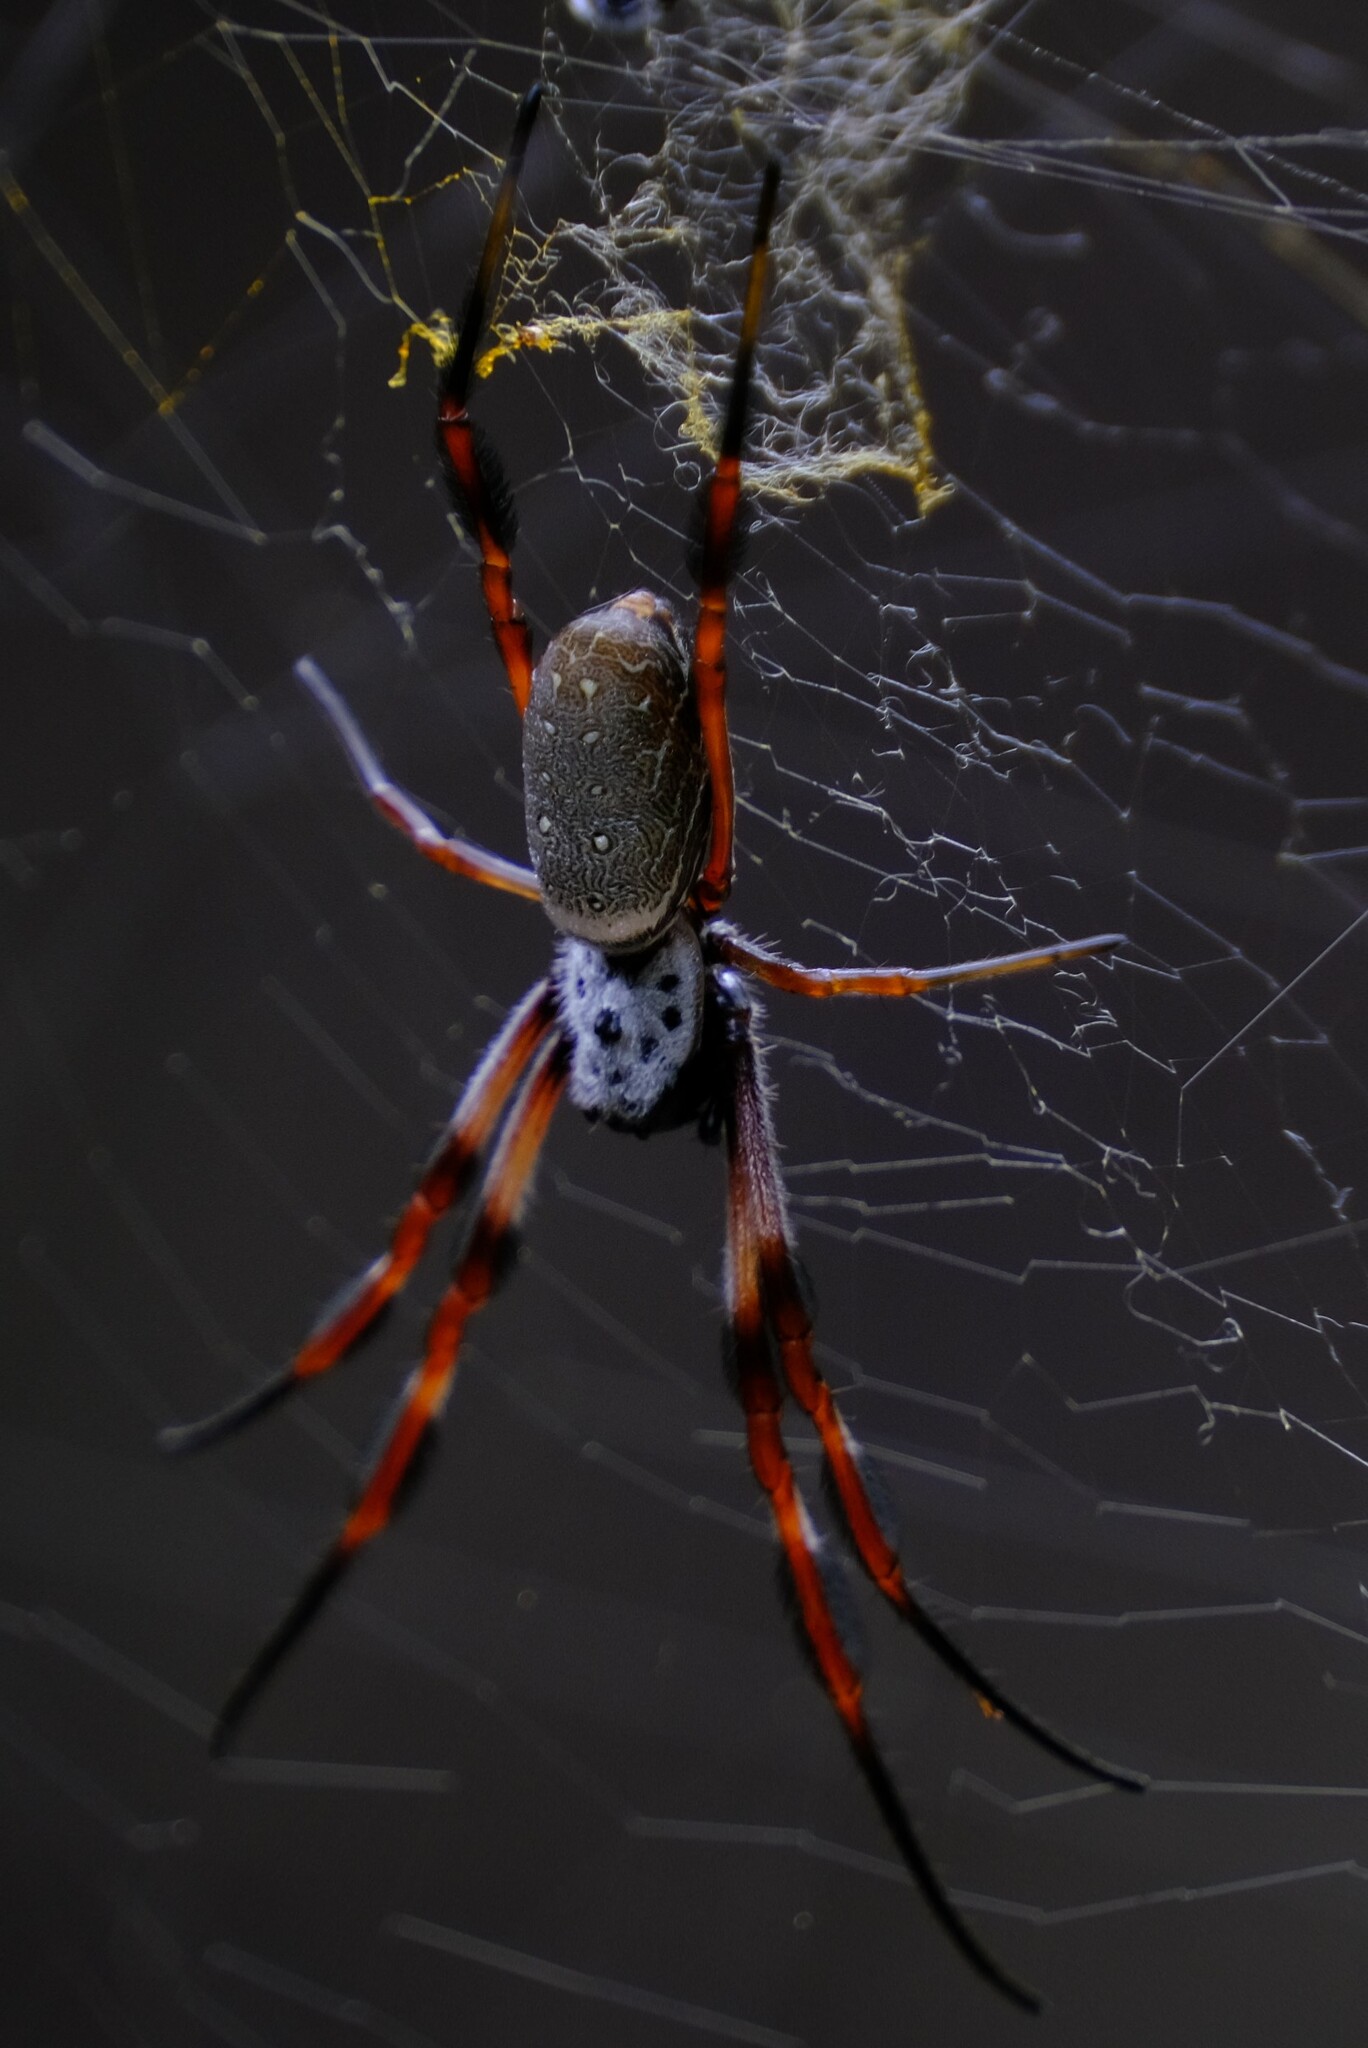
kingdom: Animalia
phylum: Arthropoda
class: Arachnida
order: Araneae
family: Araneidae
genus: Trichonephila
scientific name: Trichonephila edulis
